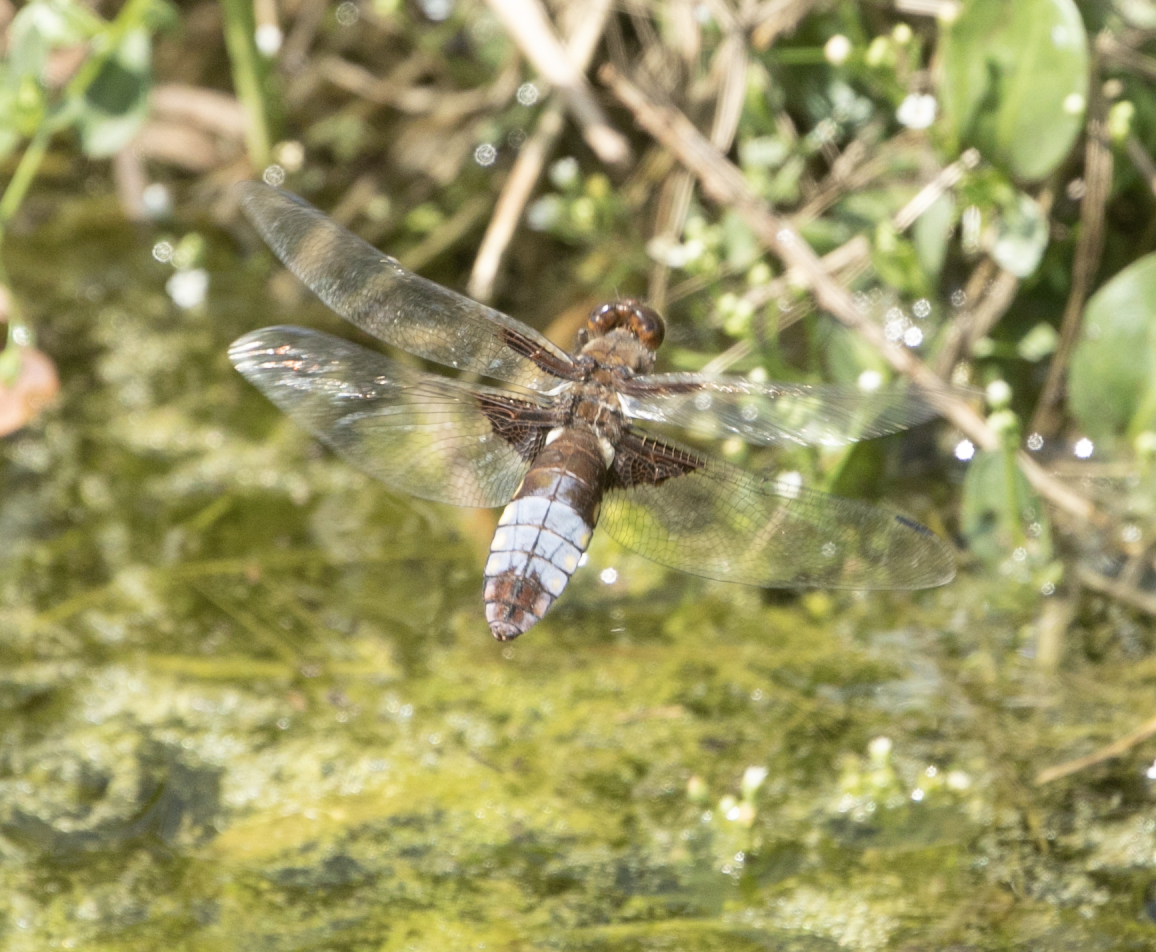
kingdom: Animalia
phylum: Arthropoda
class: Insecta
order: Odonata
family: Libellulidae
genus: Libellula
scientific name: Libellula depressa
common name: Broad-bodied chaser
